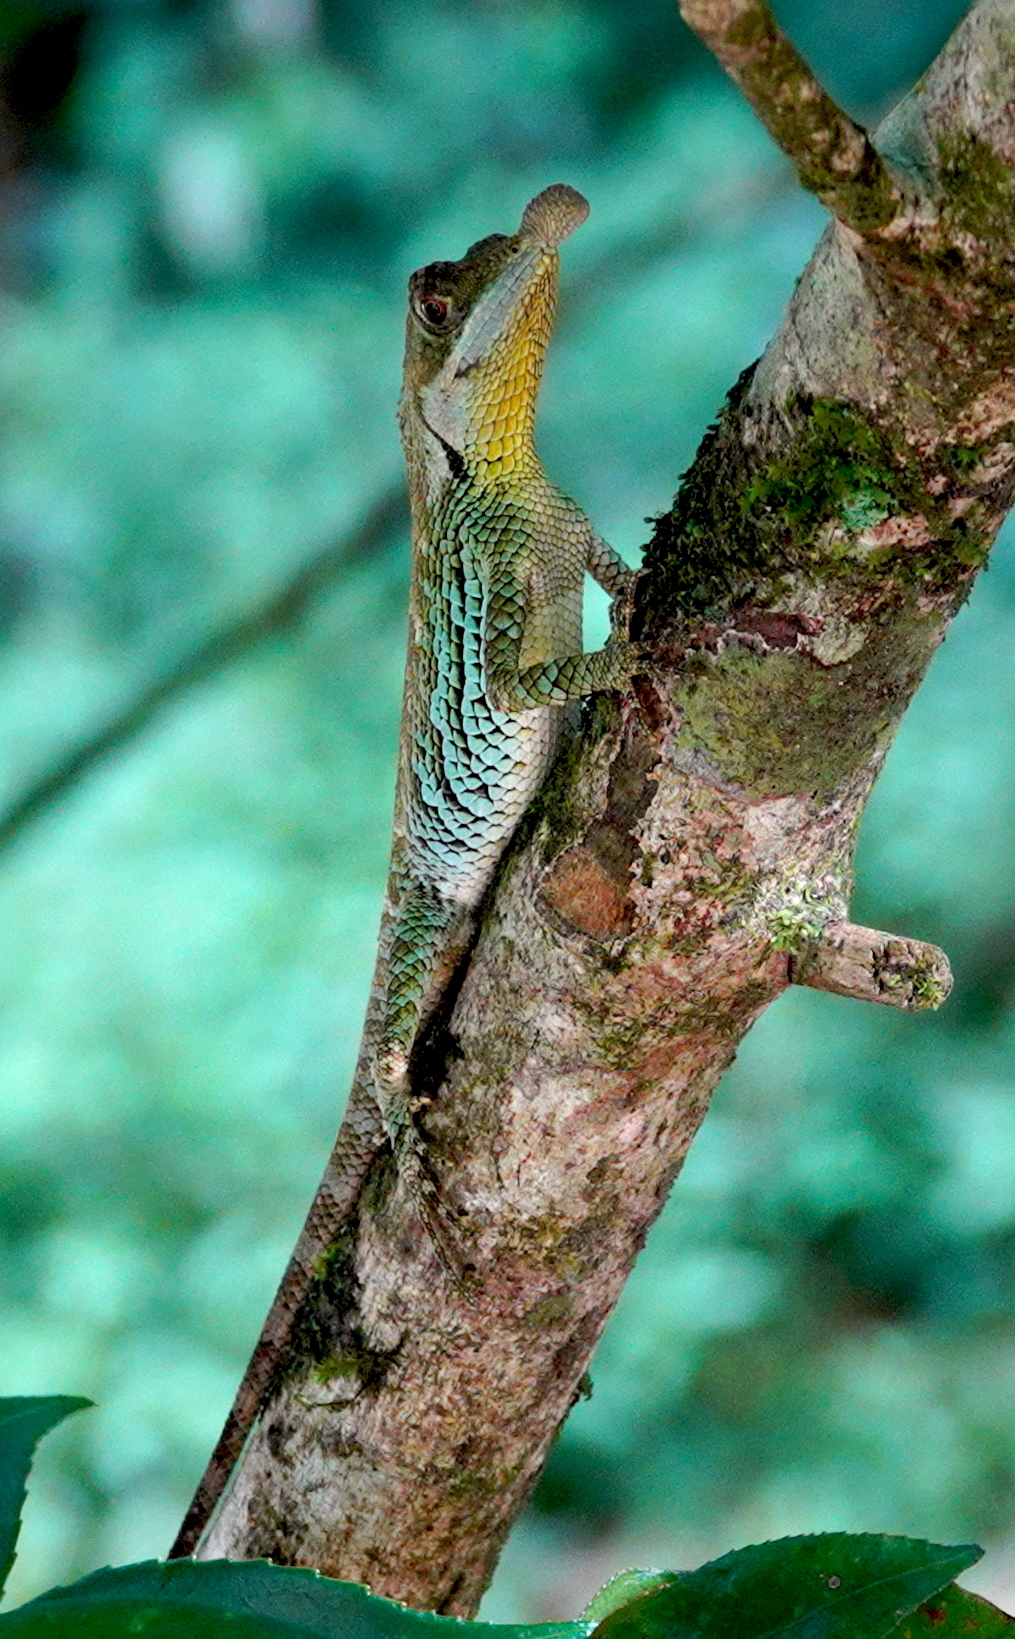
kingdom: Animalia
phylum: Chordata
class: Squamata
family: Agamidae
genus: Ceratophora
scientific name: Ceratophora tennentii
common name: Rhinoceros agama
